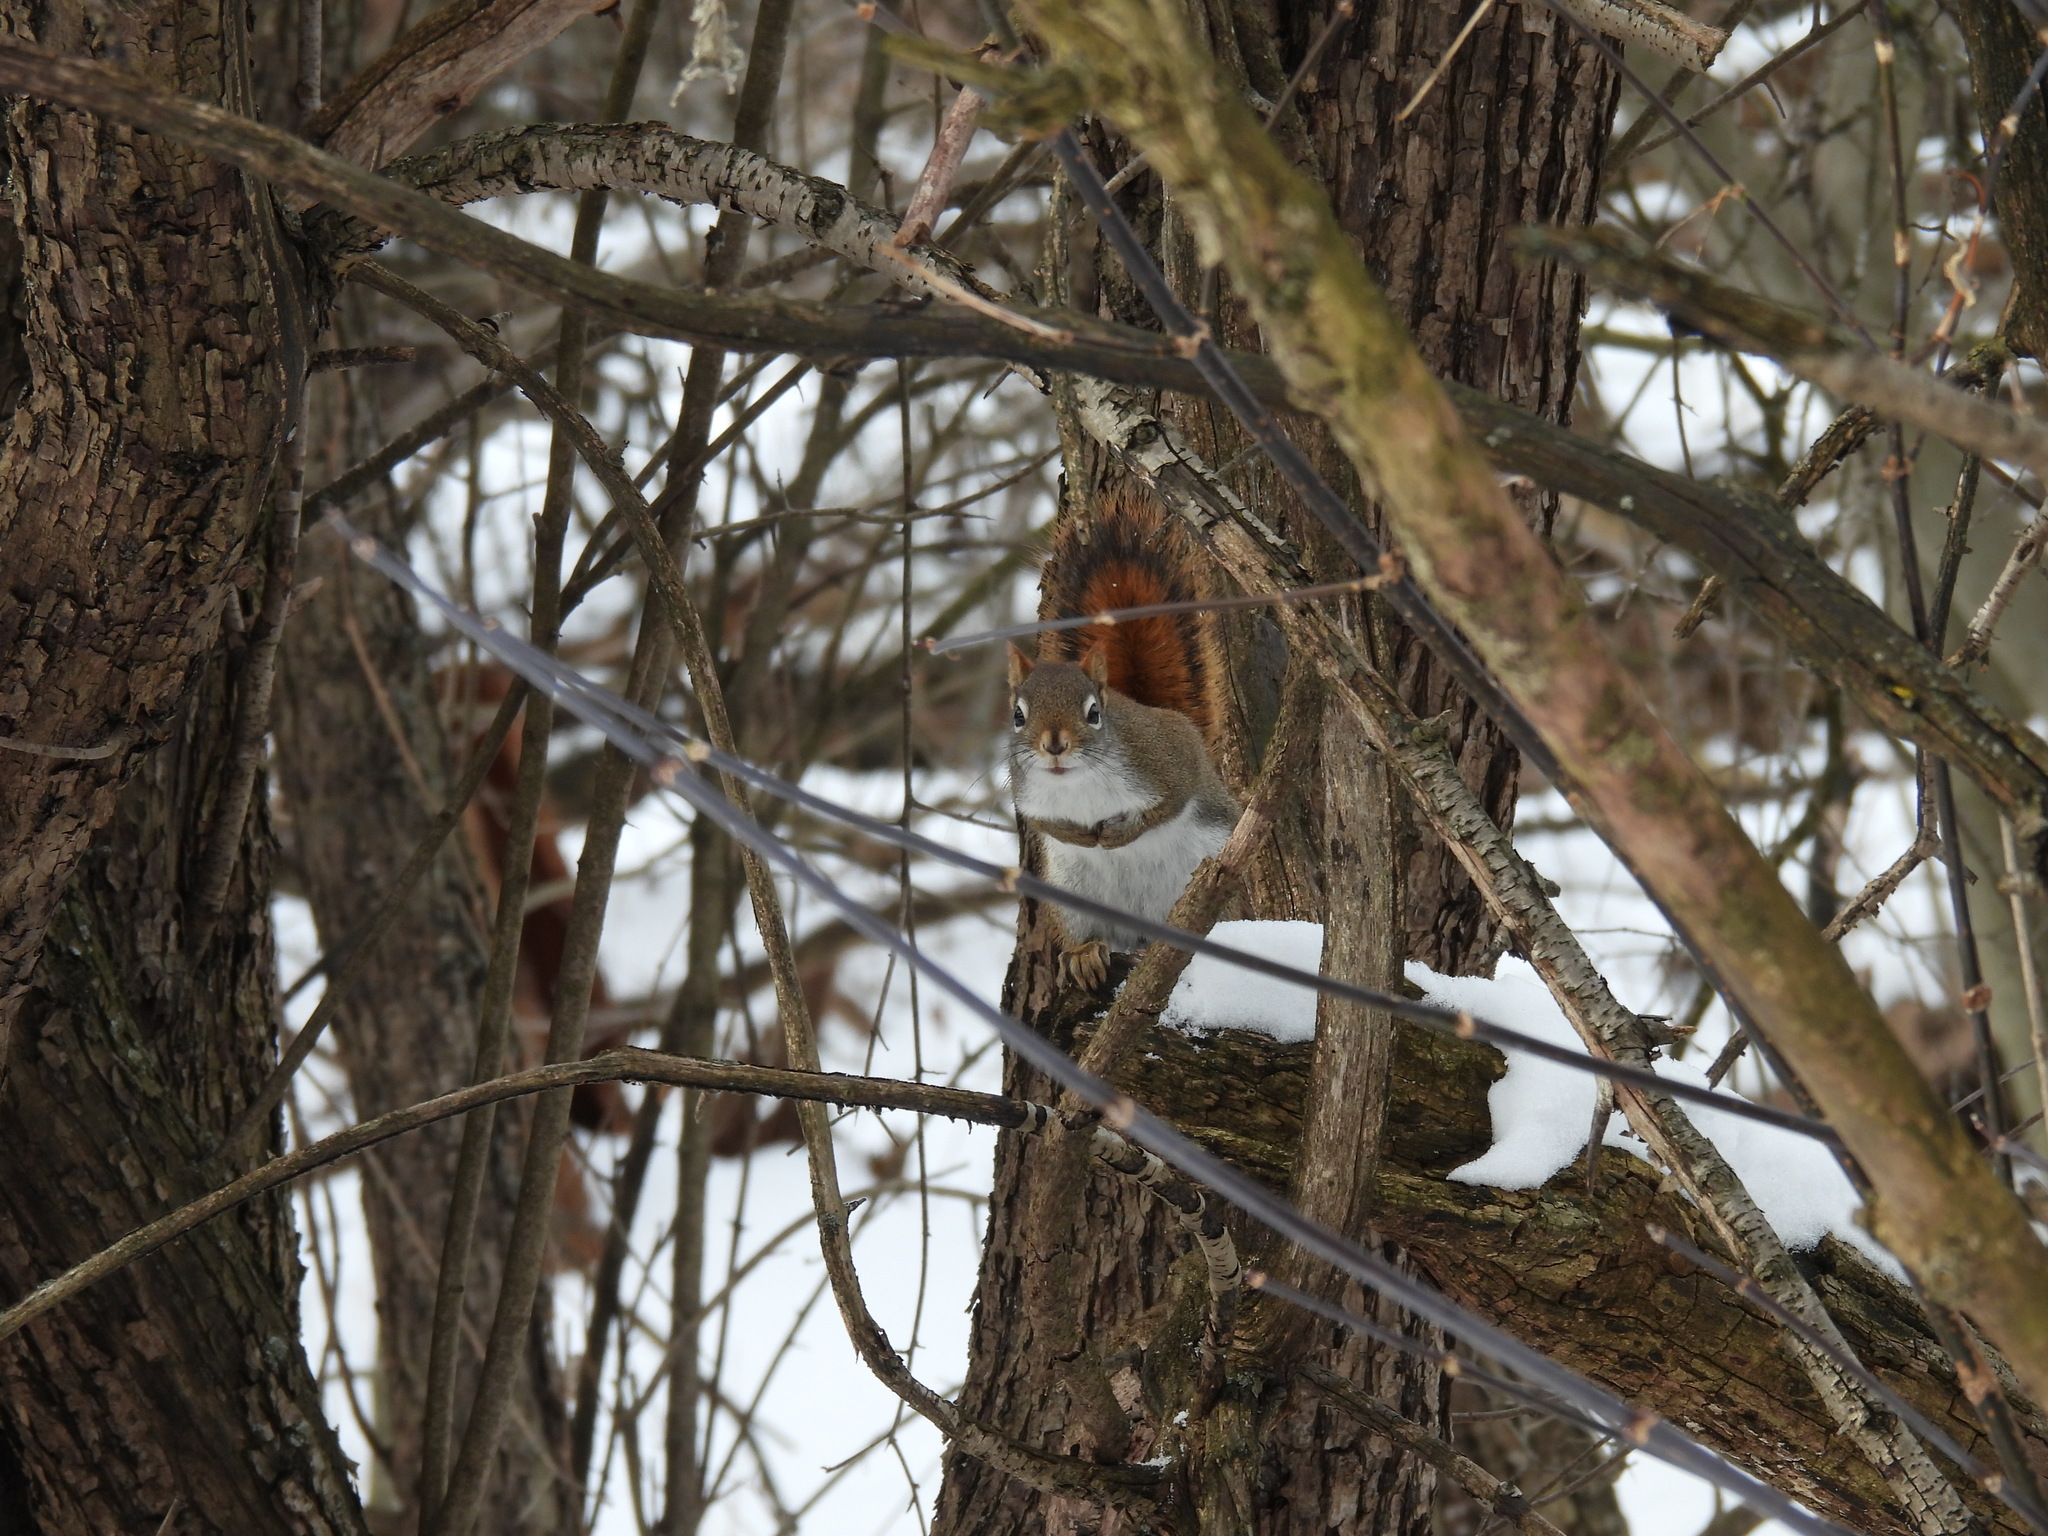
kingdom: Animalia
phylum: Chordata
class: Mammalia
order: Rodentia
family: Sciuridae
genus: Tamiasciurus
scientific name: Tamiasciurus hudsonicus
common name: Red squirrel
